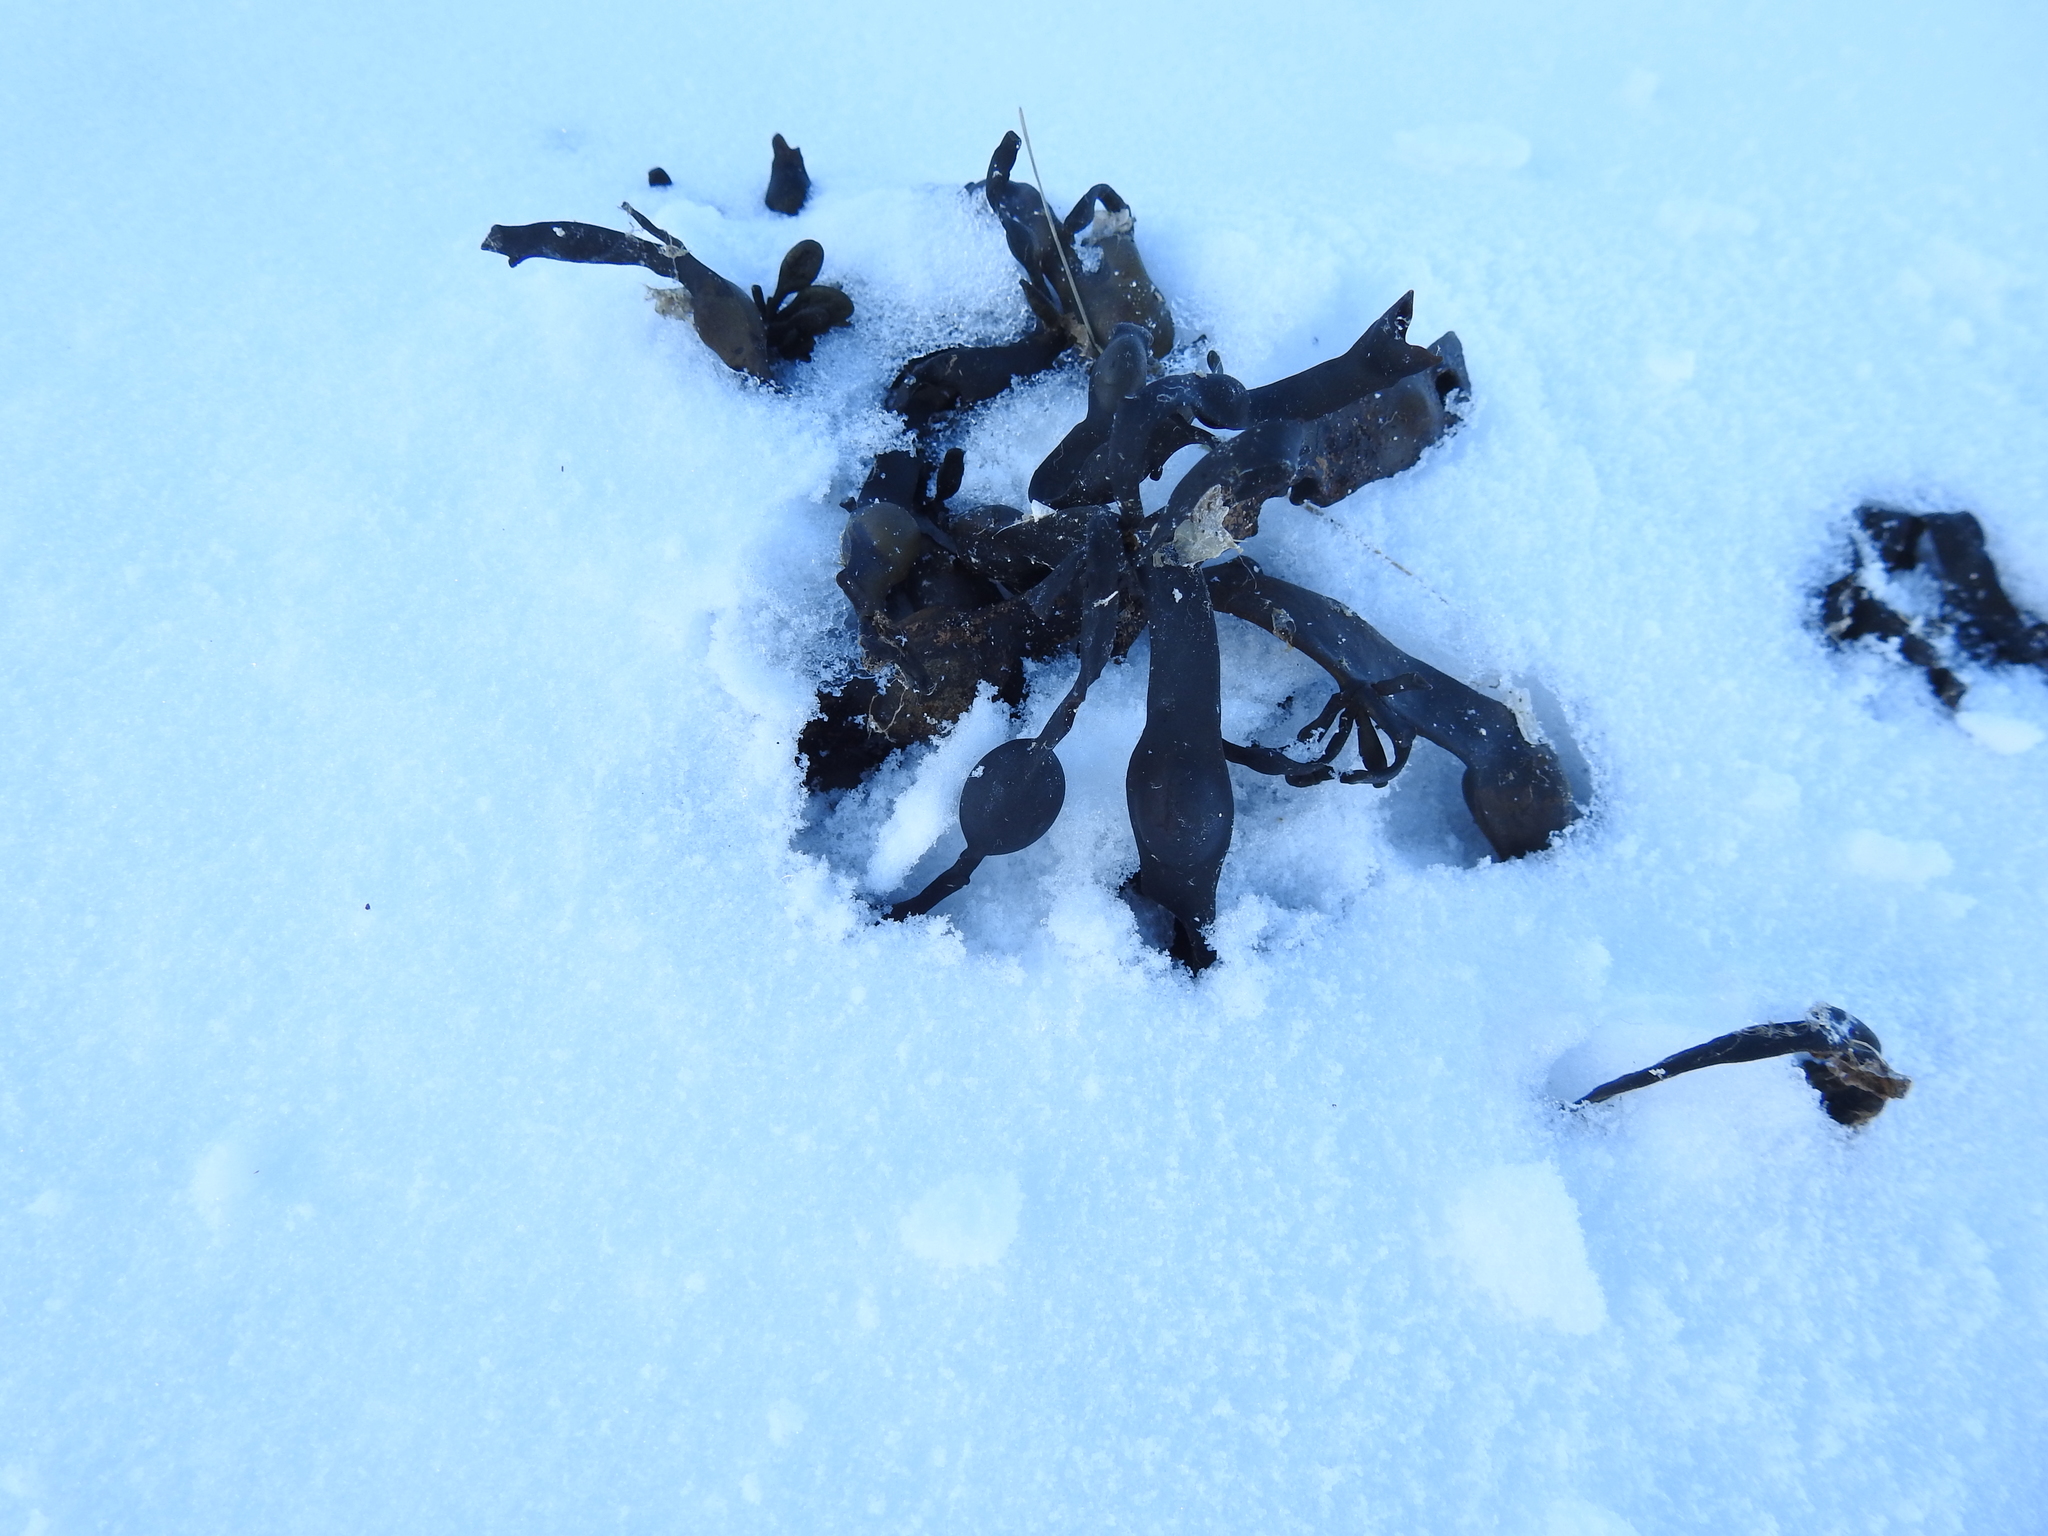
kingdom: Chromista
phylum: Ochrophyta
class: Phaeophyceae
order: Fucales
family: Fucaceae
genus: Ascophyllum
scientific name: Ascophyllum nodosum
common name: Knotted wrack
